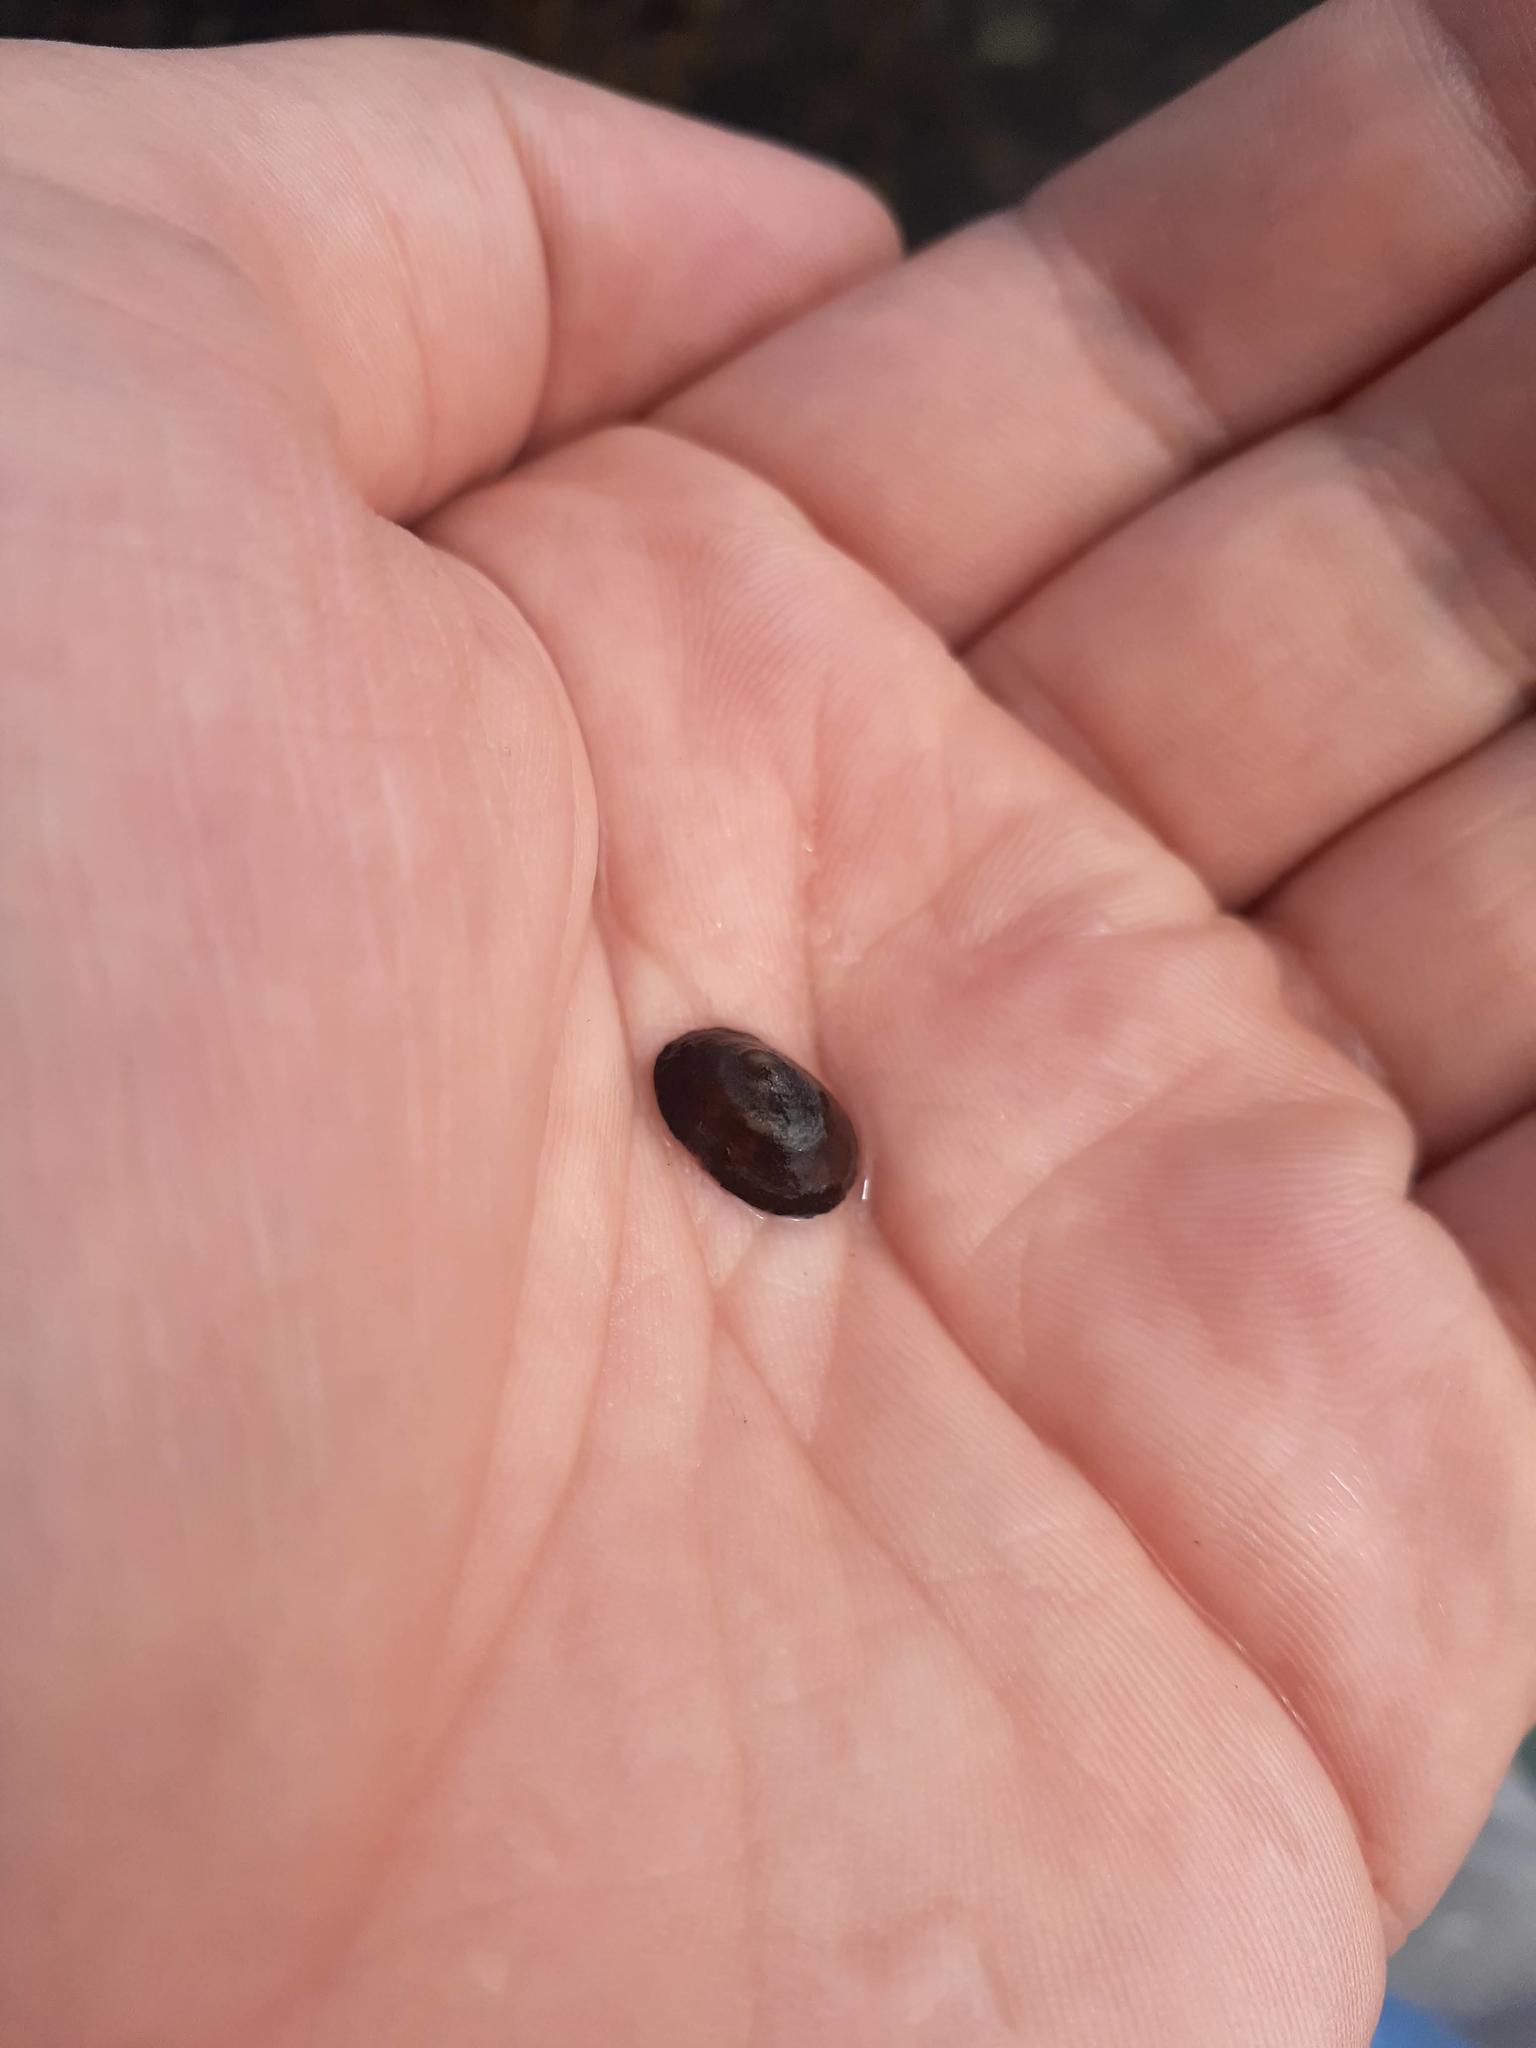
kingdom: Animalia
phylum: Mollusca
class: Gastropoda
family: Lottiidae
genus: Testudinalia
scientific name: Testudinalia testudinalis
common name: Common tortoiseshell limpet
